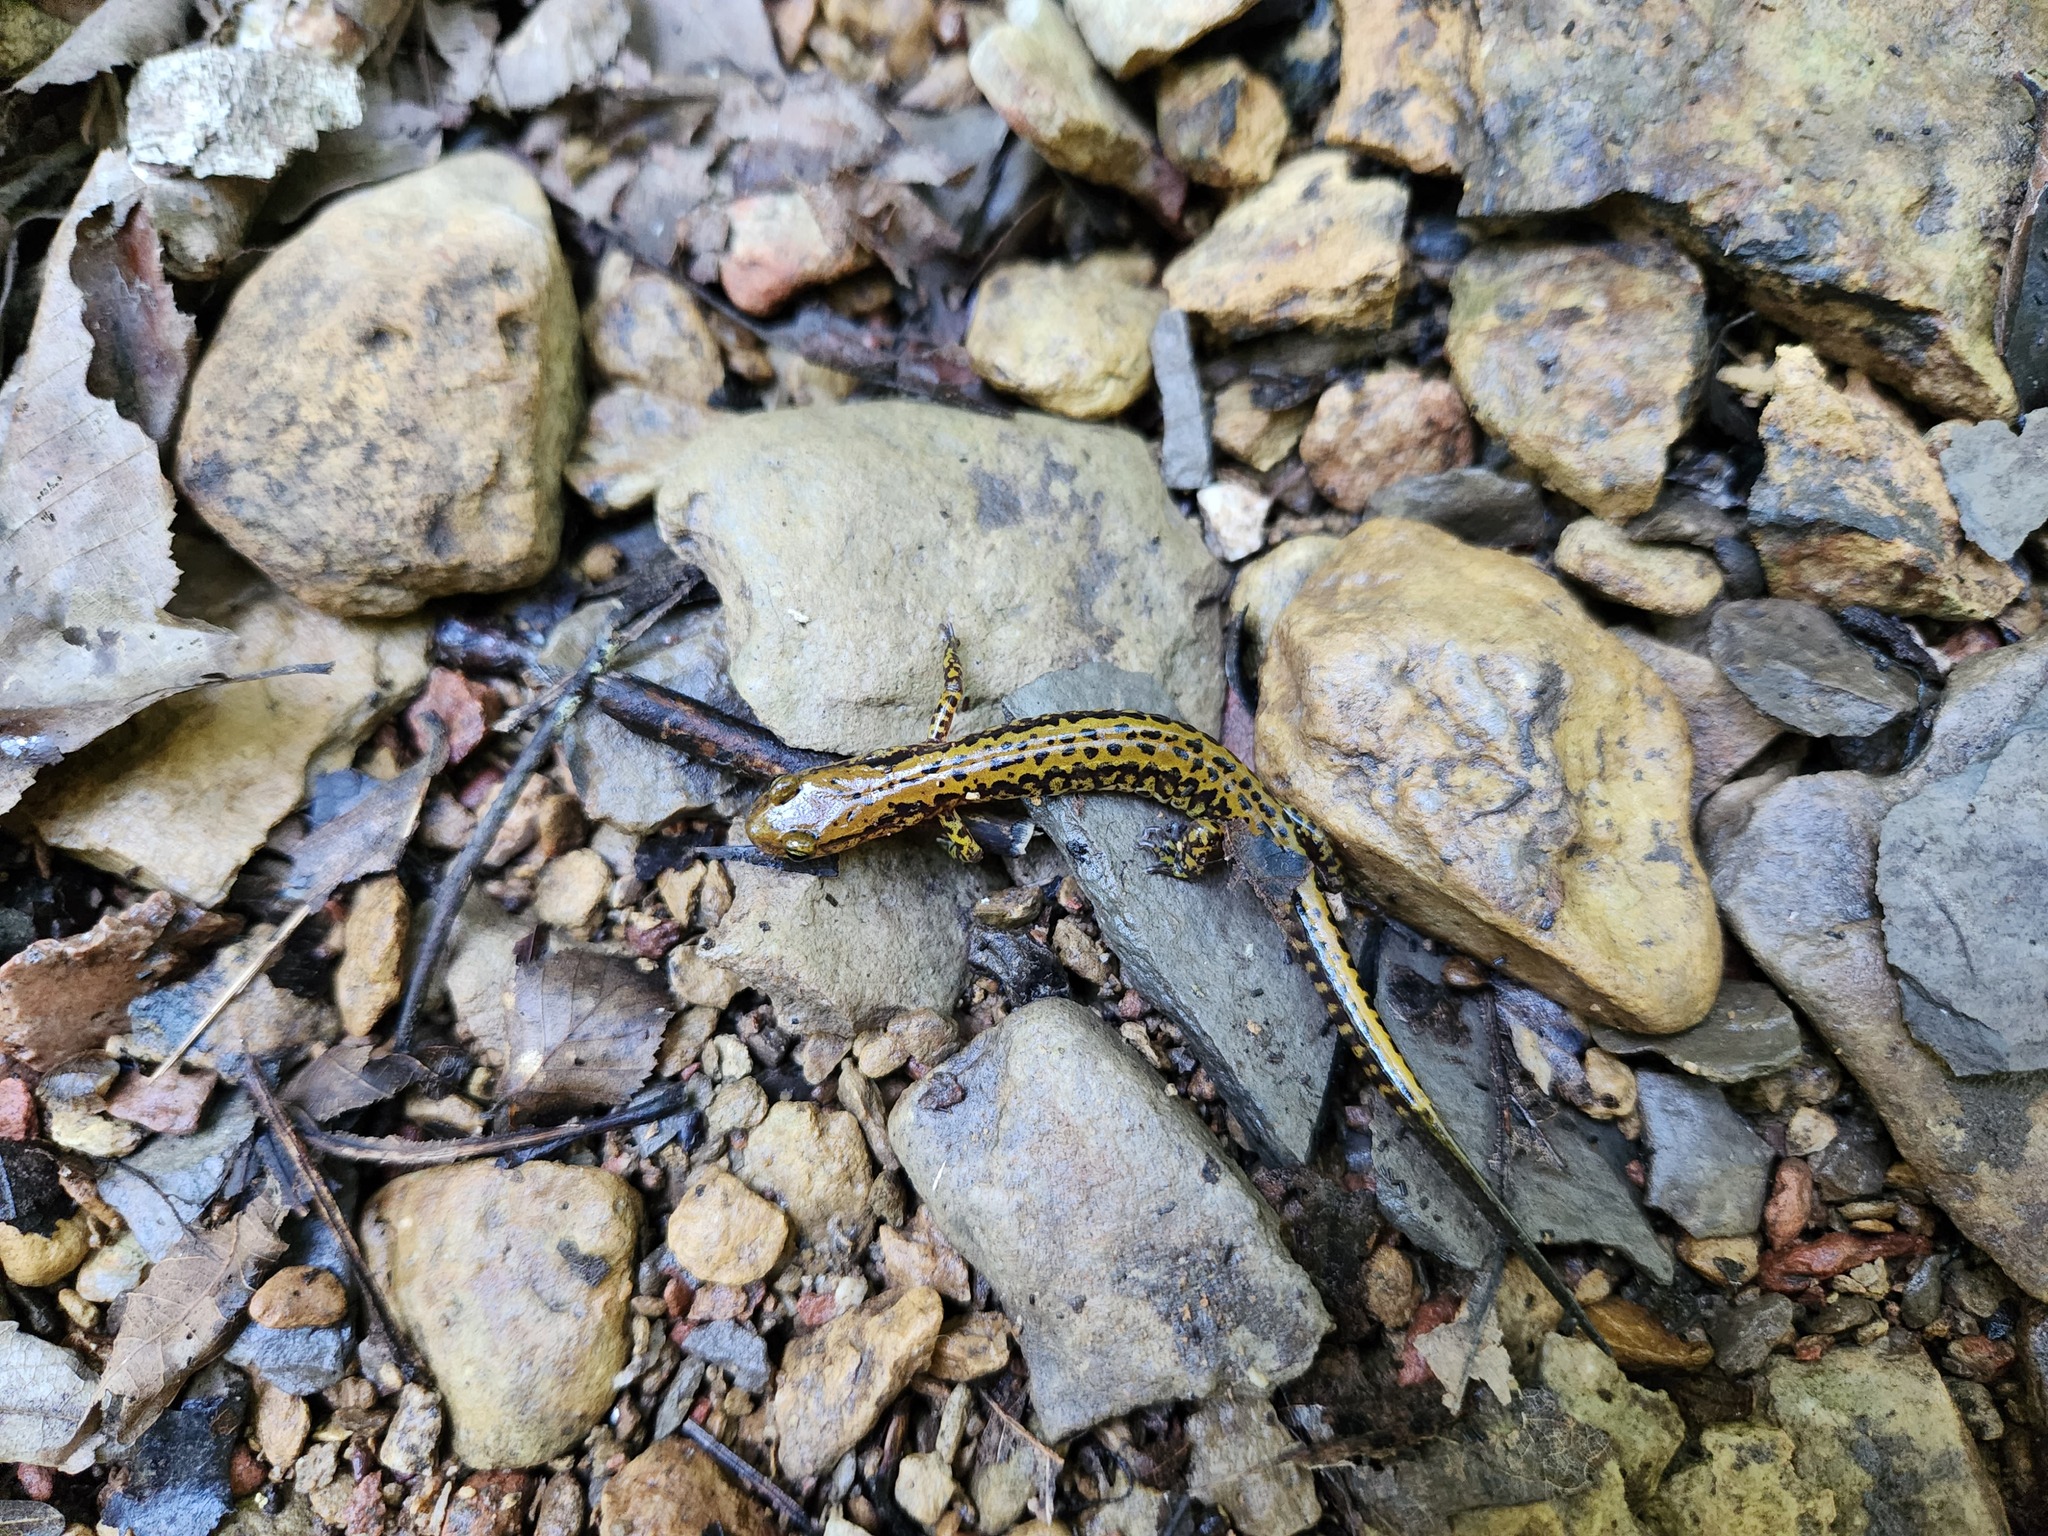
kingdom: Animalia
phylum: Chordata
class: Amphibia
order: Caudata
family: Plethodontidae
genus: Eurycea
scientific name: Eurycea longicauda
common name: Long-tailed salamander
